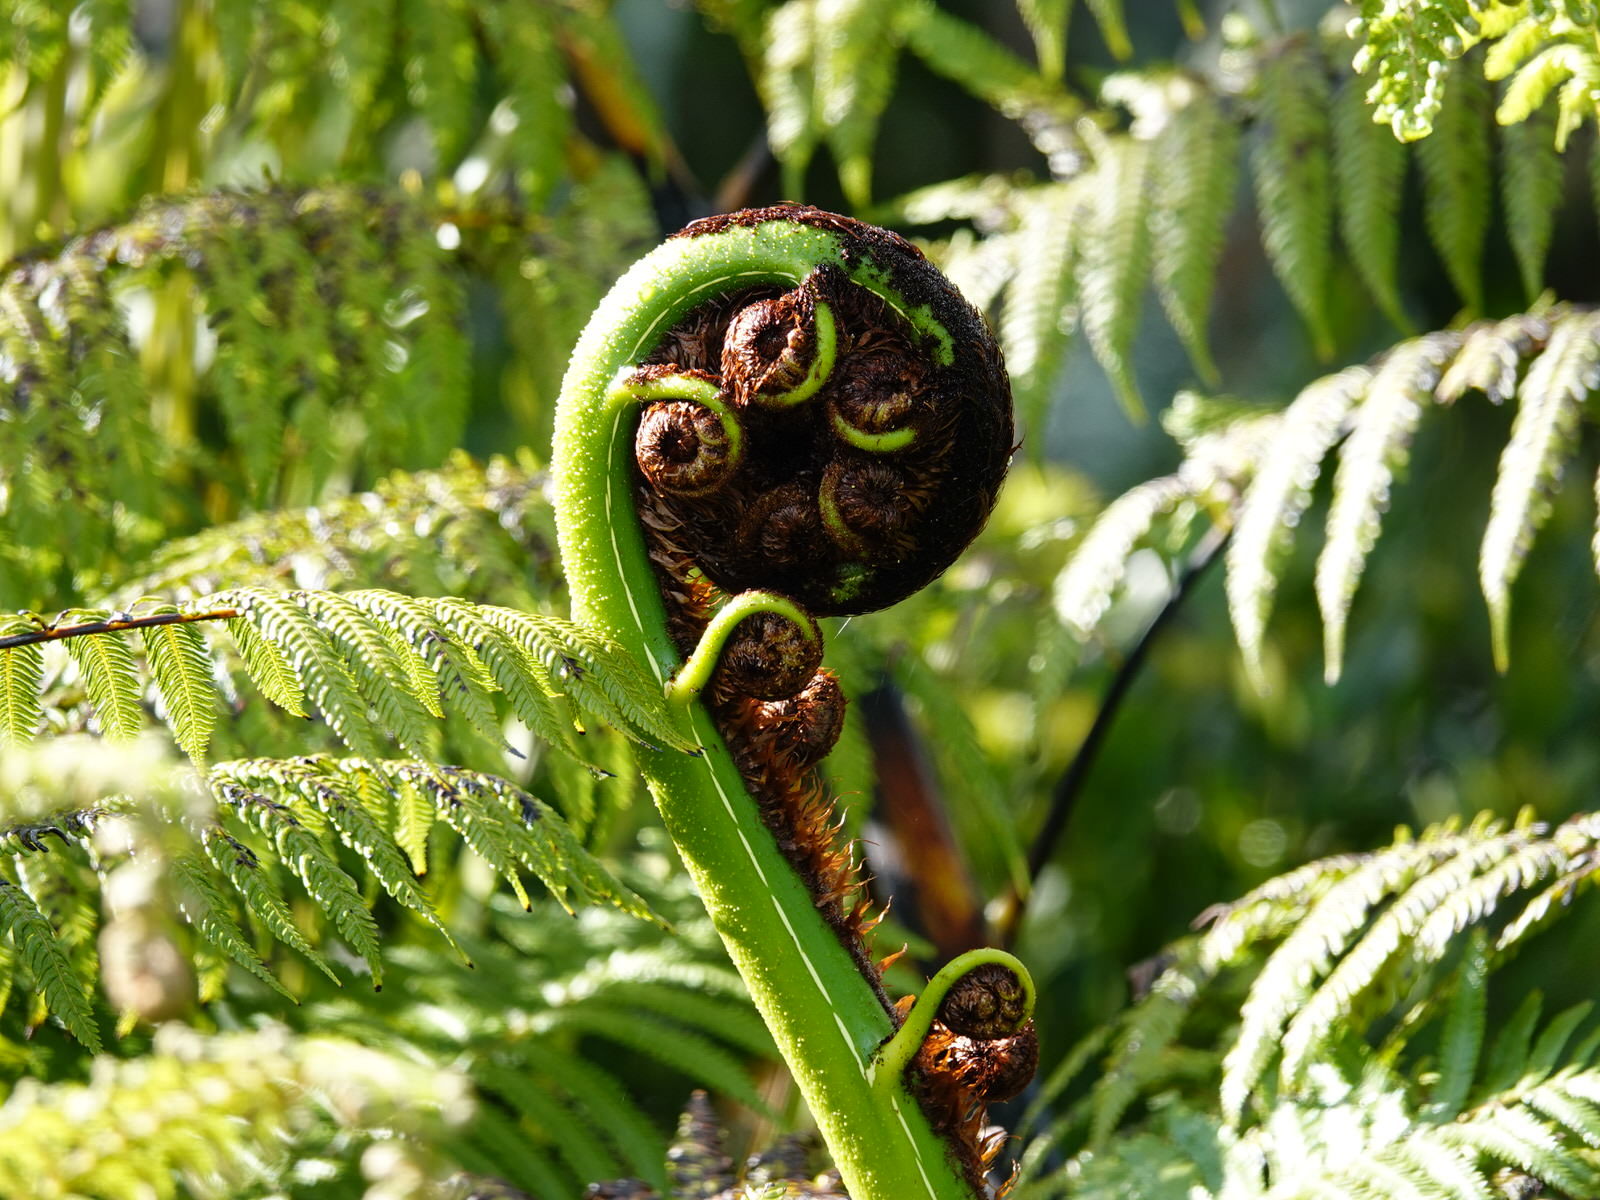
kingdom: Plantae
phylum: Tracheophyta
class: Polypodiopsida
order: Cyatheales
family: Cyatheaceae
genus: Sphaeropteris
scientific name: Sphaeropteris medullaris
